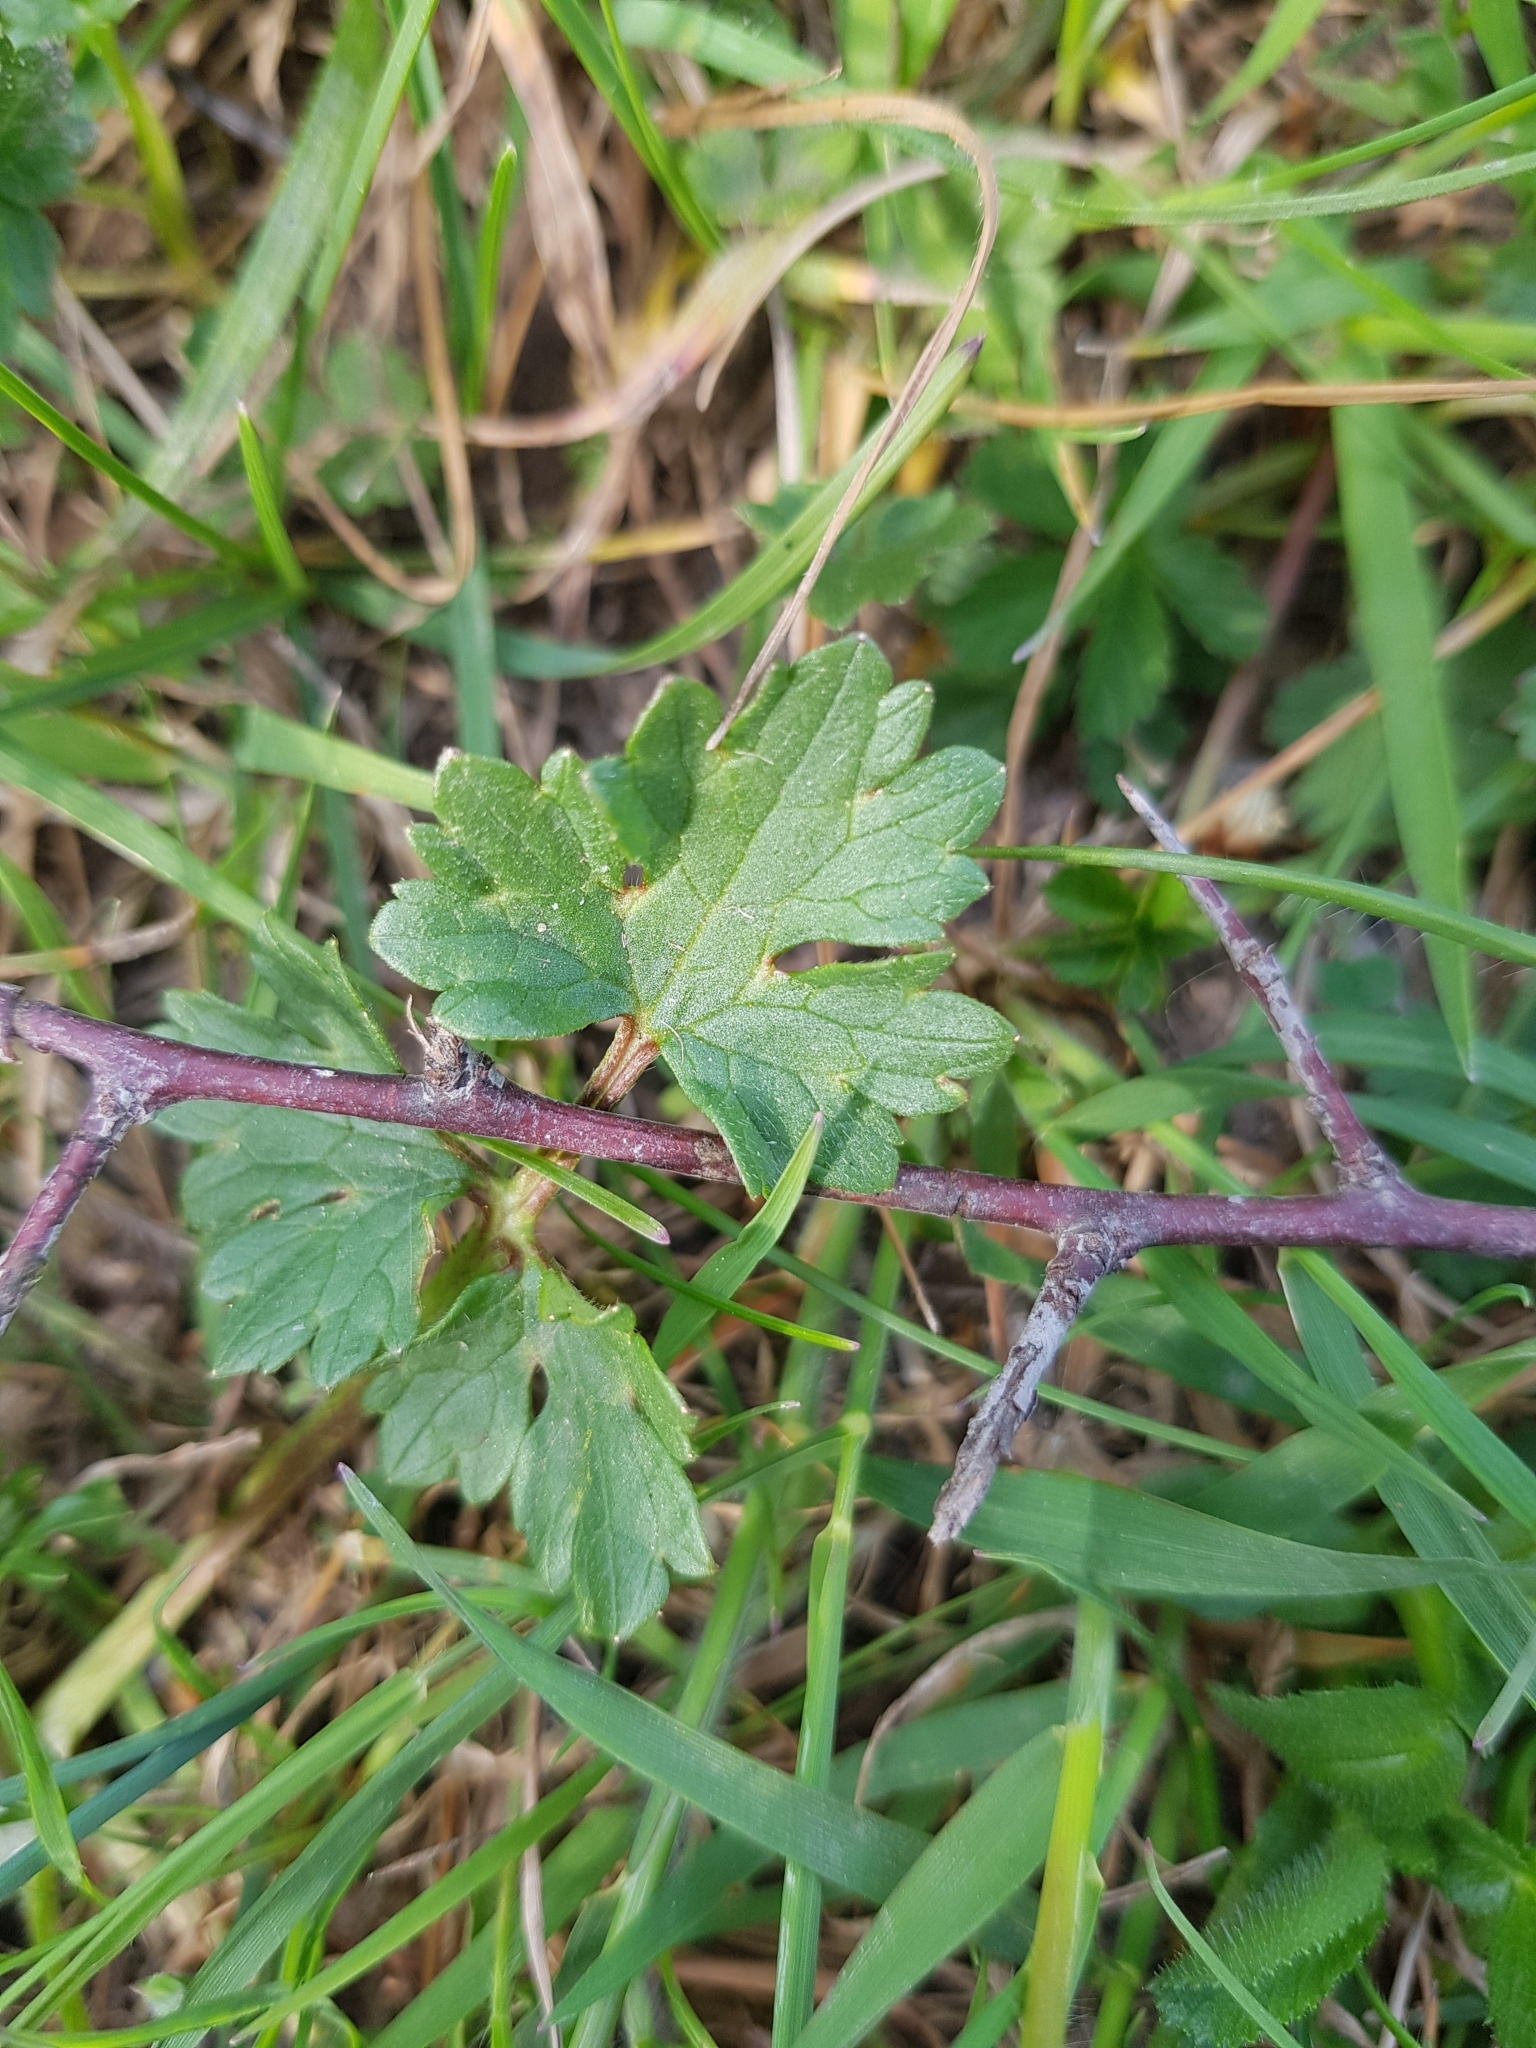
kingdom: Plantae
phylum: Tracheophyta
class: Magnoliopsida
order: Ranunculales
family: Ranunculaceae
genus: Ranunculus
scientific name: Ranunculus bulbosus
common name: Bulbous buttercup
